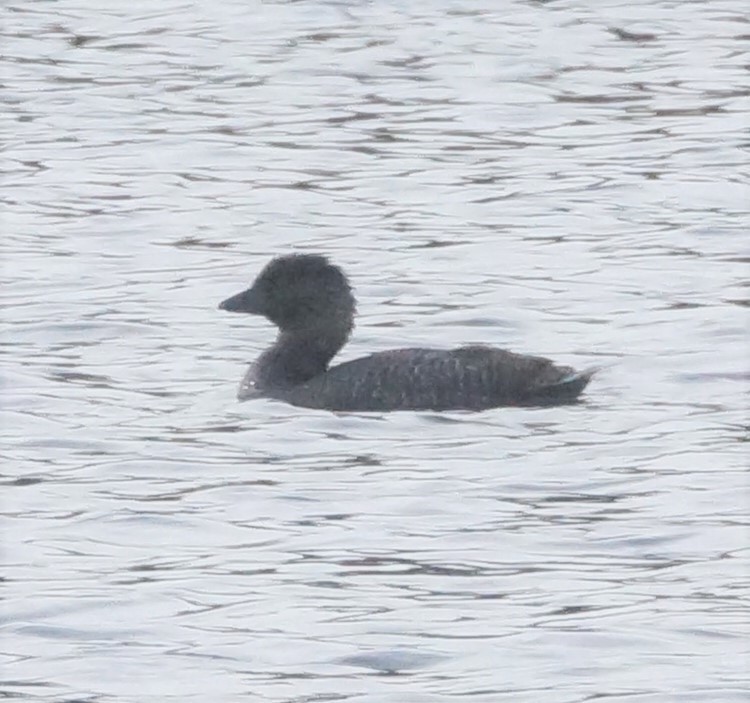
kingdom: Animalia
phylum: Chordata
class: Aves
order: Anseriformes
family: Anatidae
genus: Biziura
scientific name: Biziura lobata
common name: Musk duck
